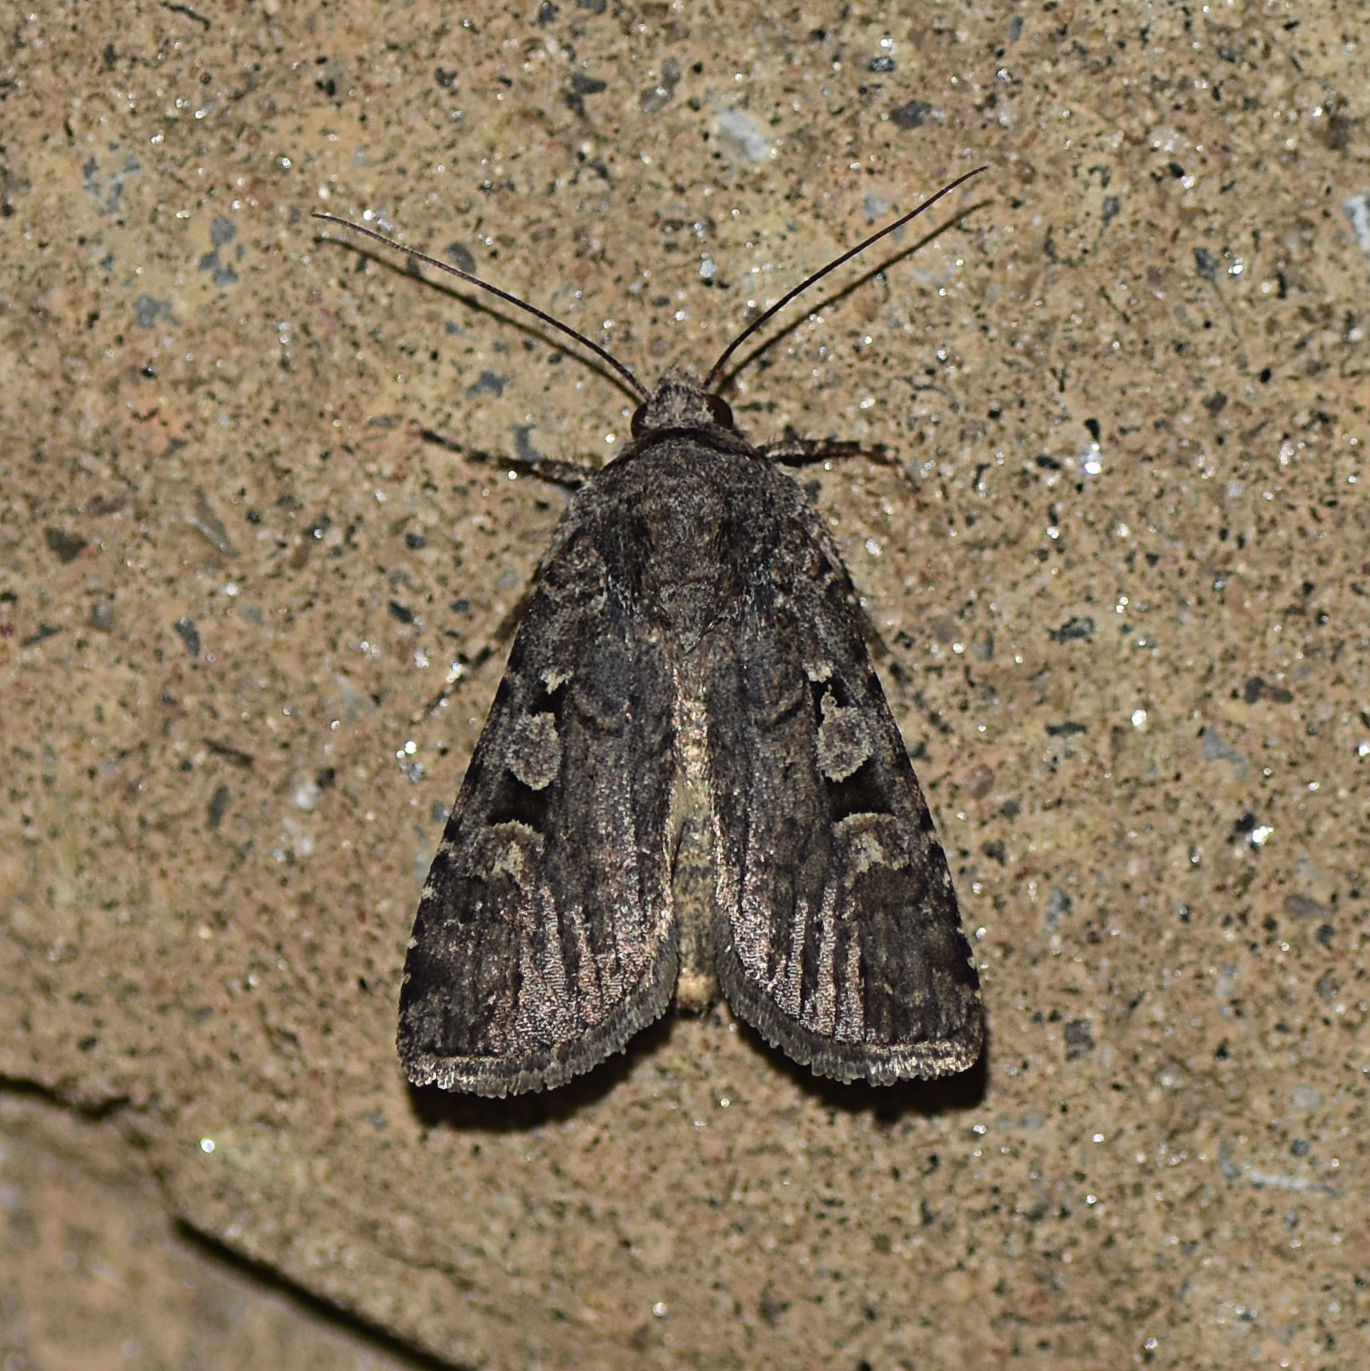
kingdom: Animalia
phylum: Arthropoda
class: Insecta
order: Lepidoptera
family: Noctuidae
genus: Euxoa
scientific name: Euxoa tessellata
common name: Striped cutworm
